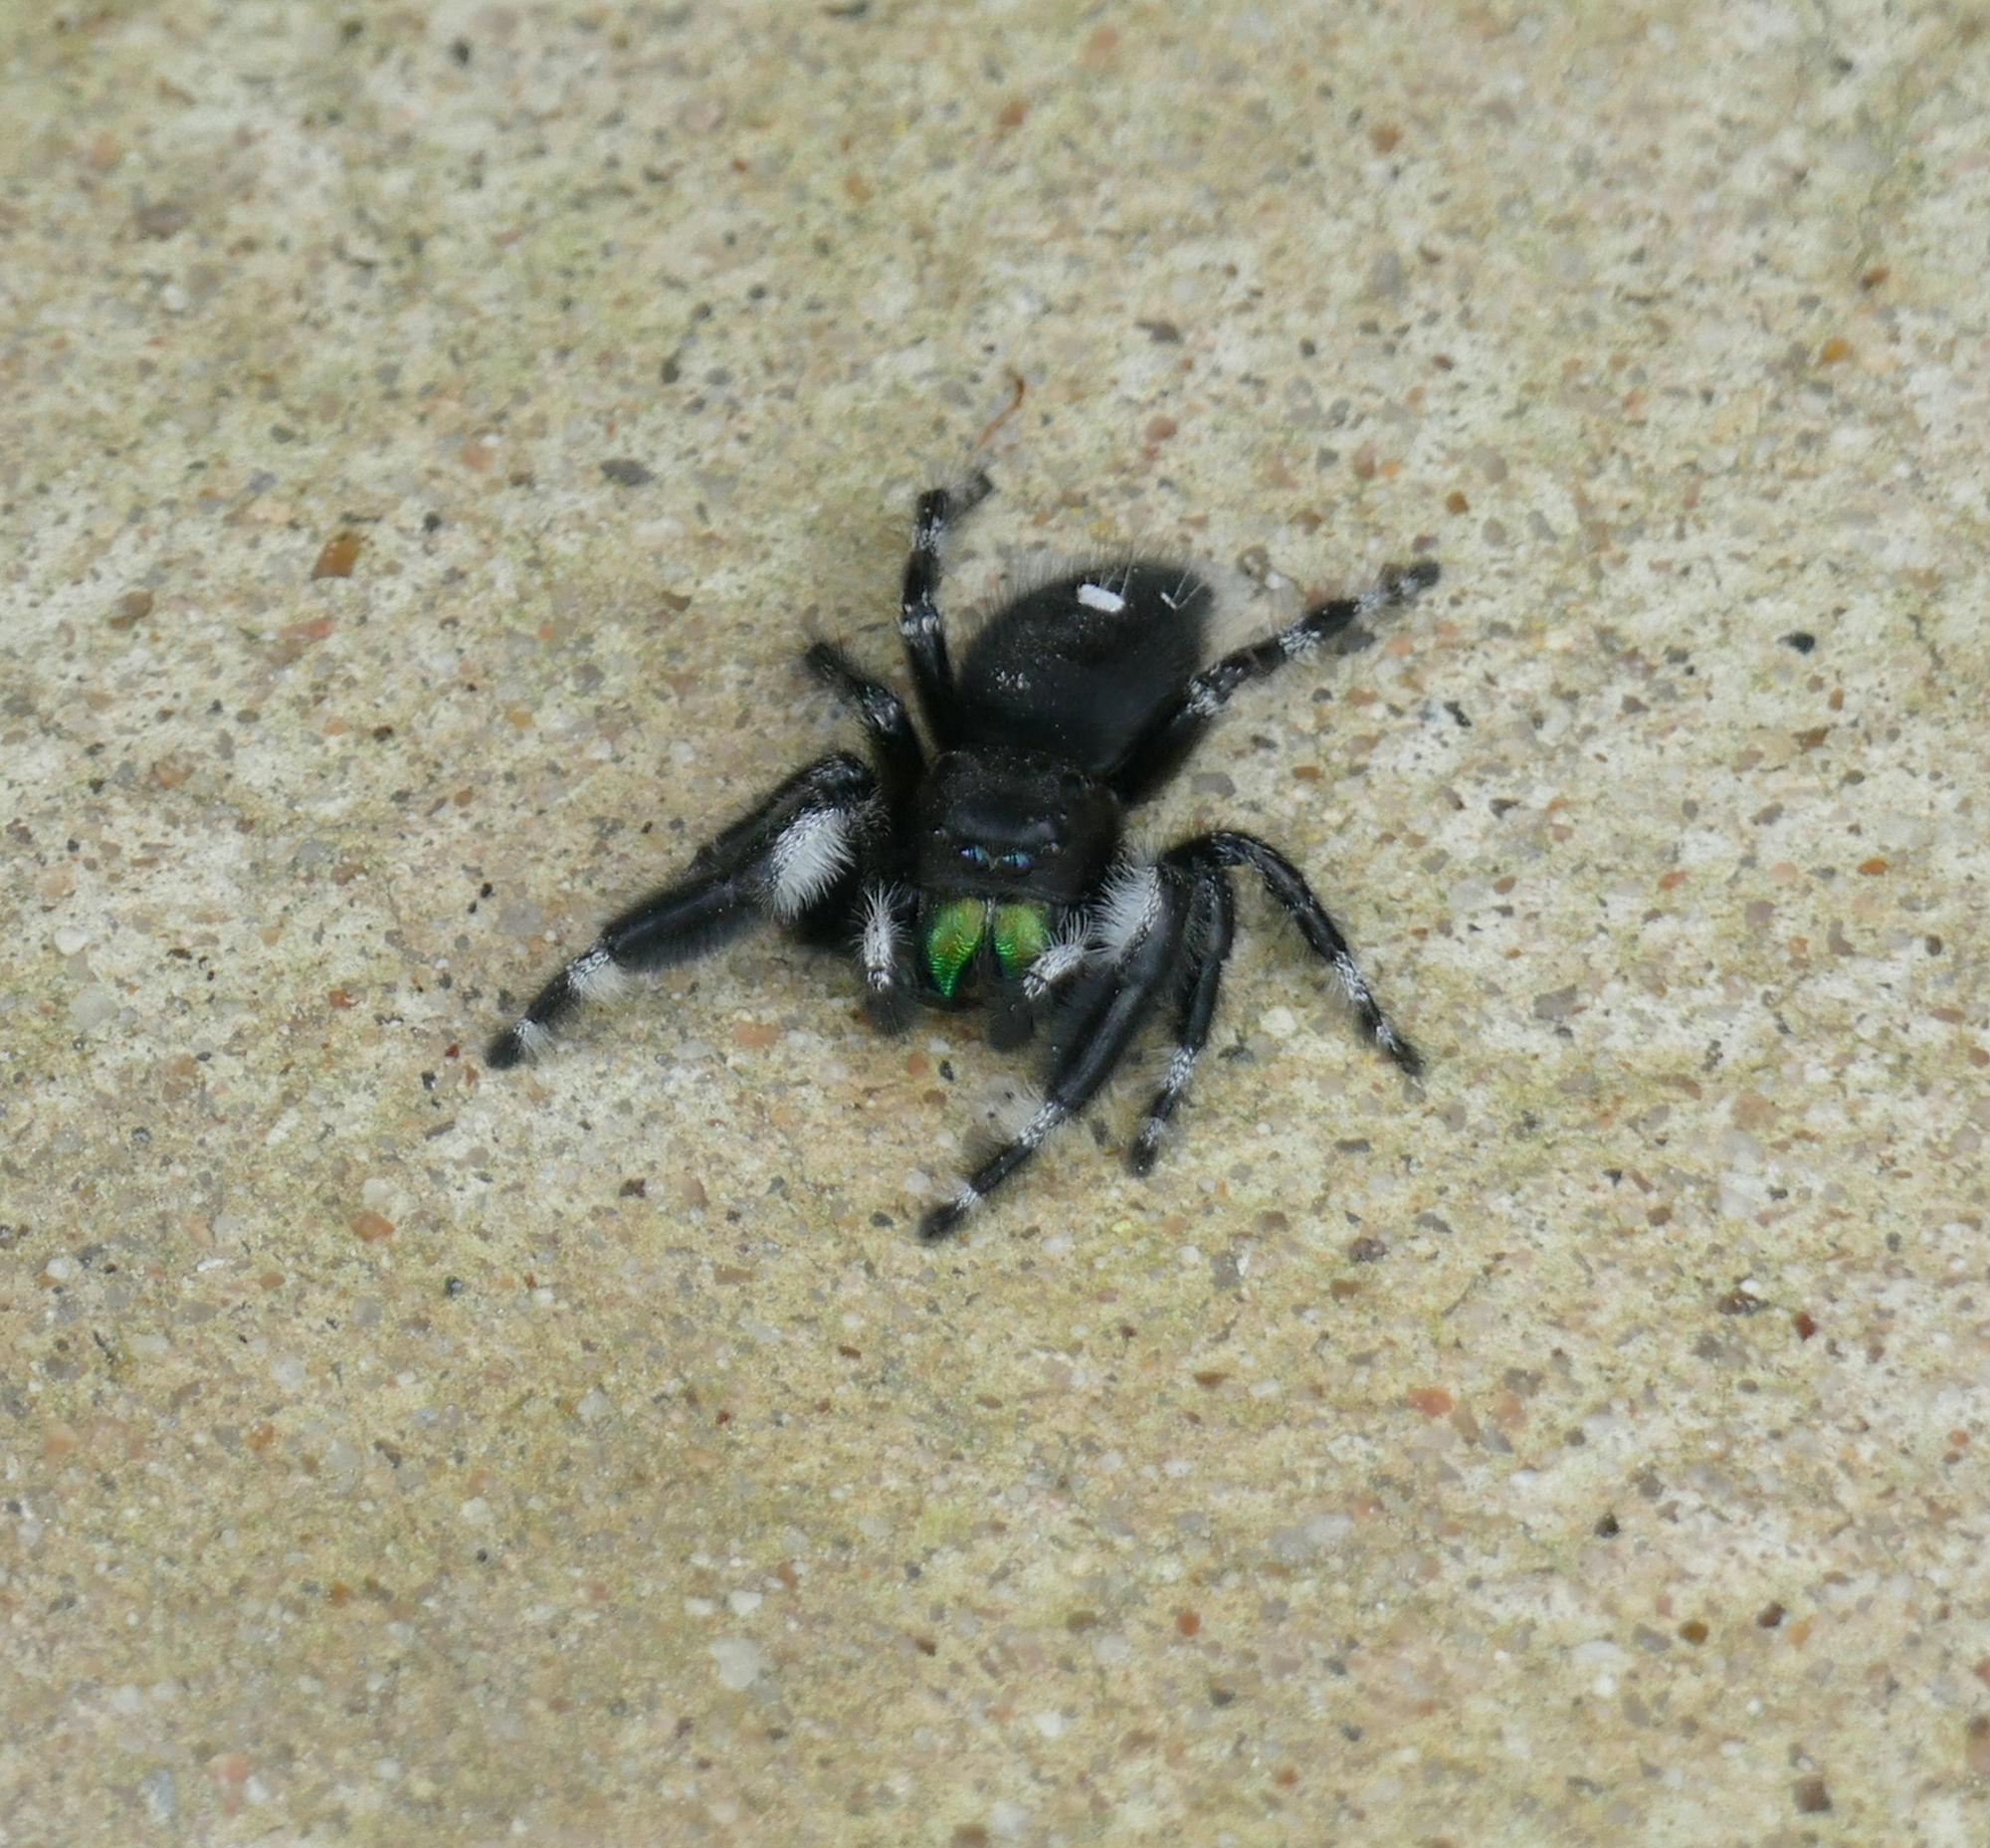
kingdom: Animalia
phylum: Arthropoda
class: Arachnida
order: Araneae
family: Salticidae
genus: Phidippus
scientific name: Phidippus audax
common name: Bold jumper
